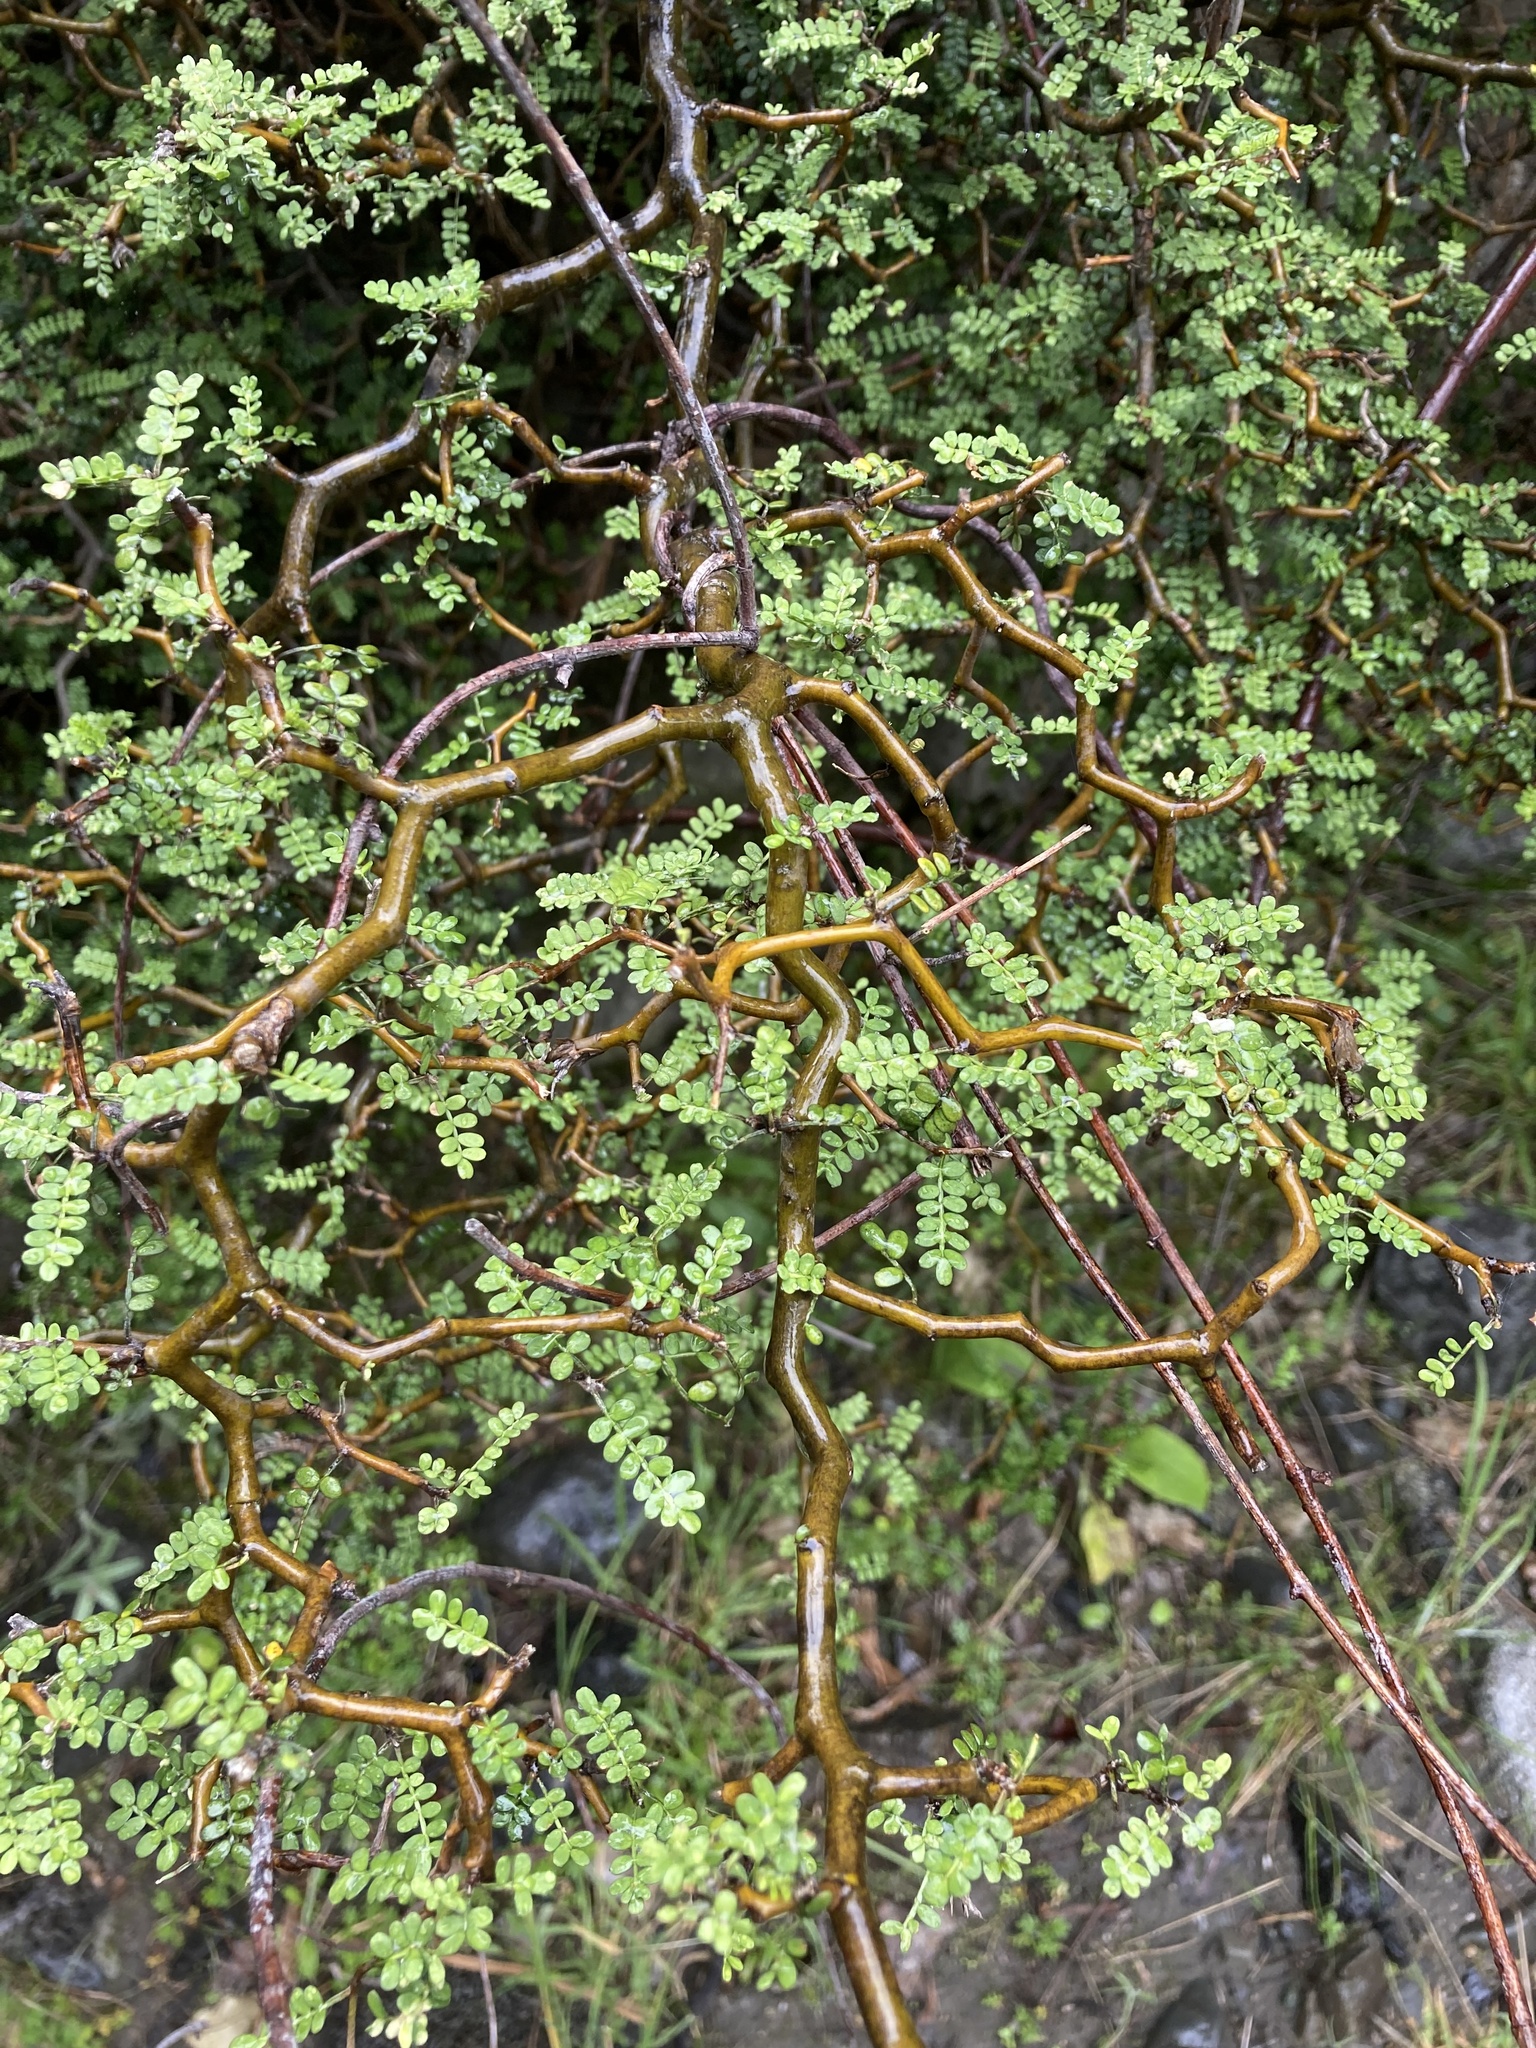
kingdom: Plantae
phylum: Tracheophyta
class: Magnoliopsida
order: Fabales
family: Fabaceae
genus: Sophora
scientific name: Sophora prostrata
